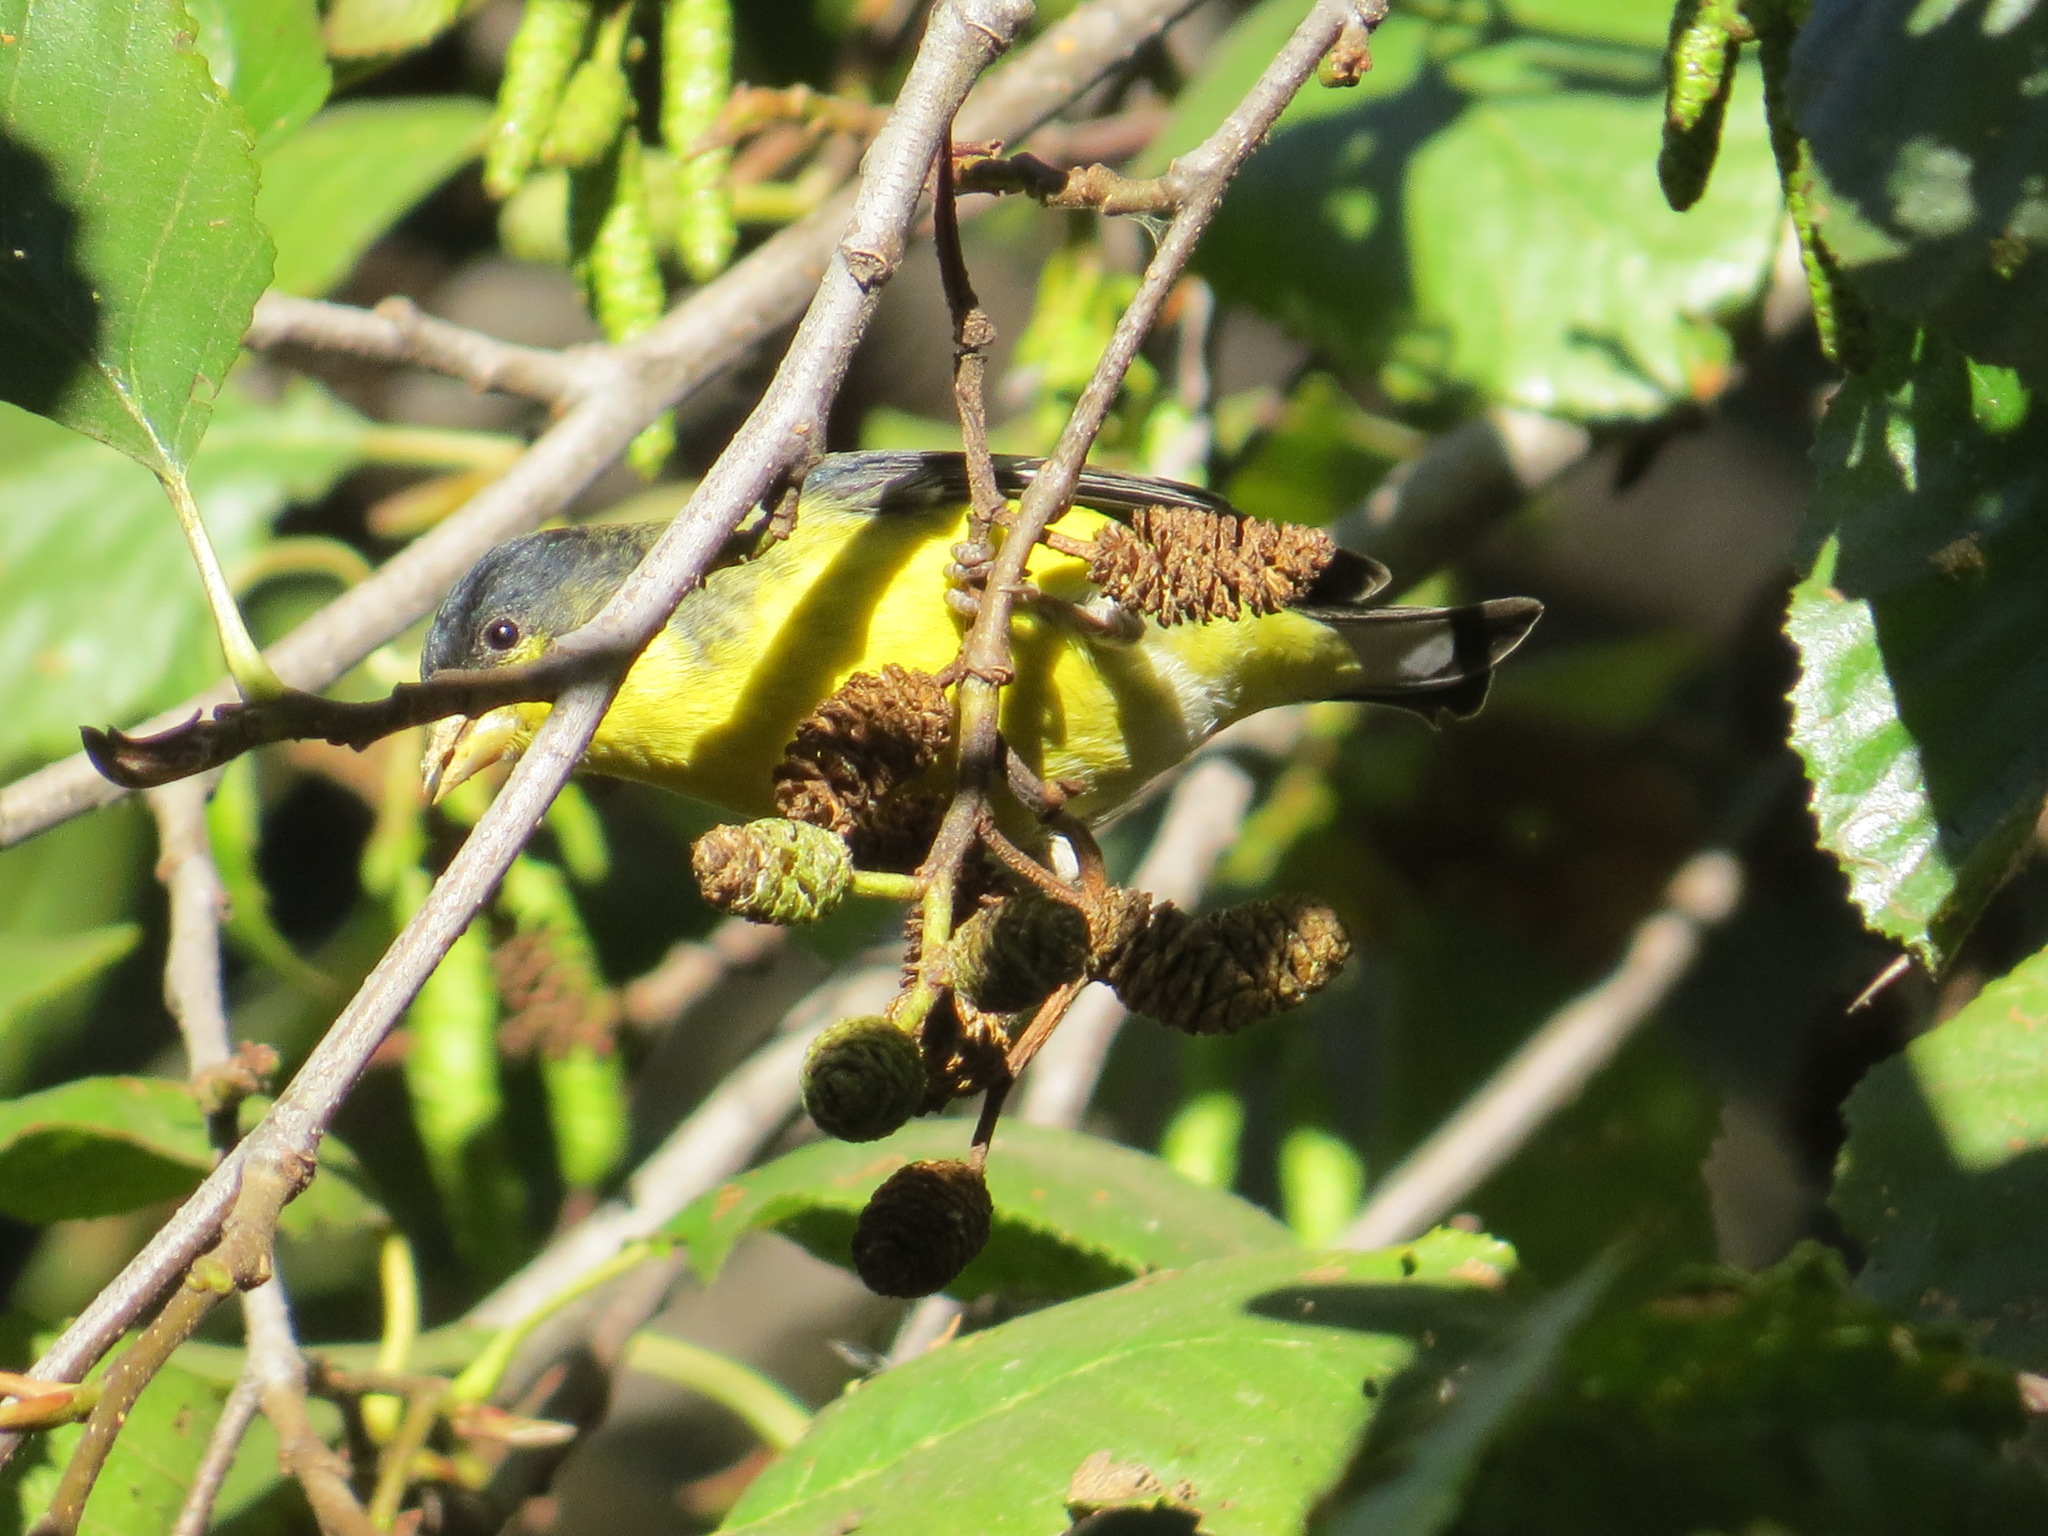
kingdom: Animalia
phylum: Chordata
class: Aves
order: Passeriformes
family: Fringillidae
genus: Spinus
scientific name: Spinus psaltria
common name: Lesser goldfinch
